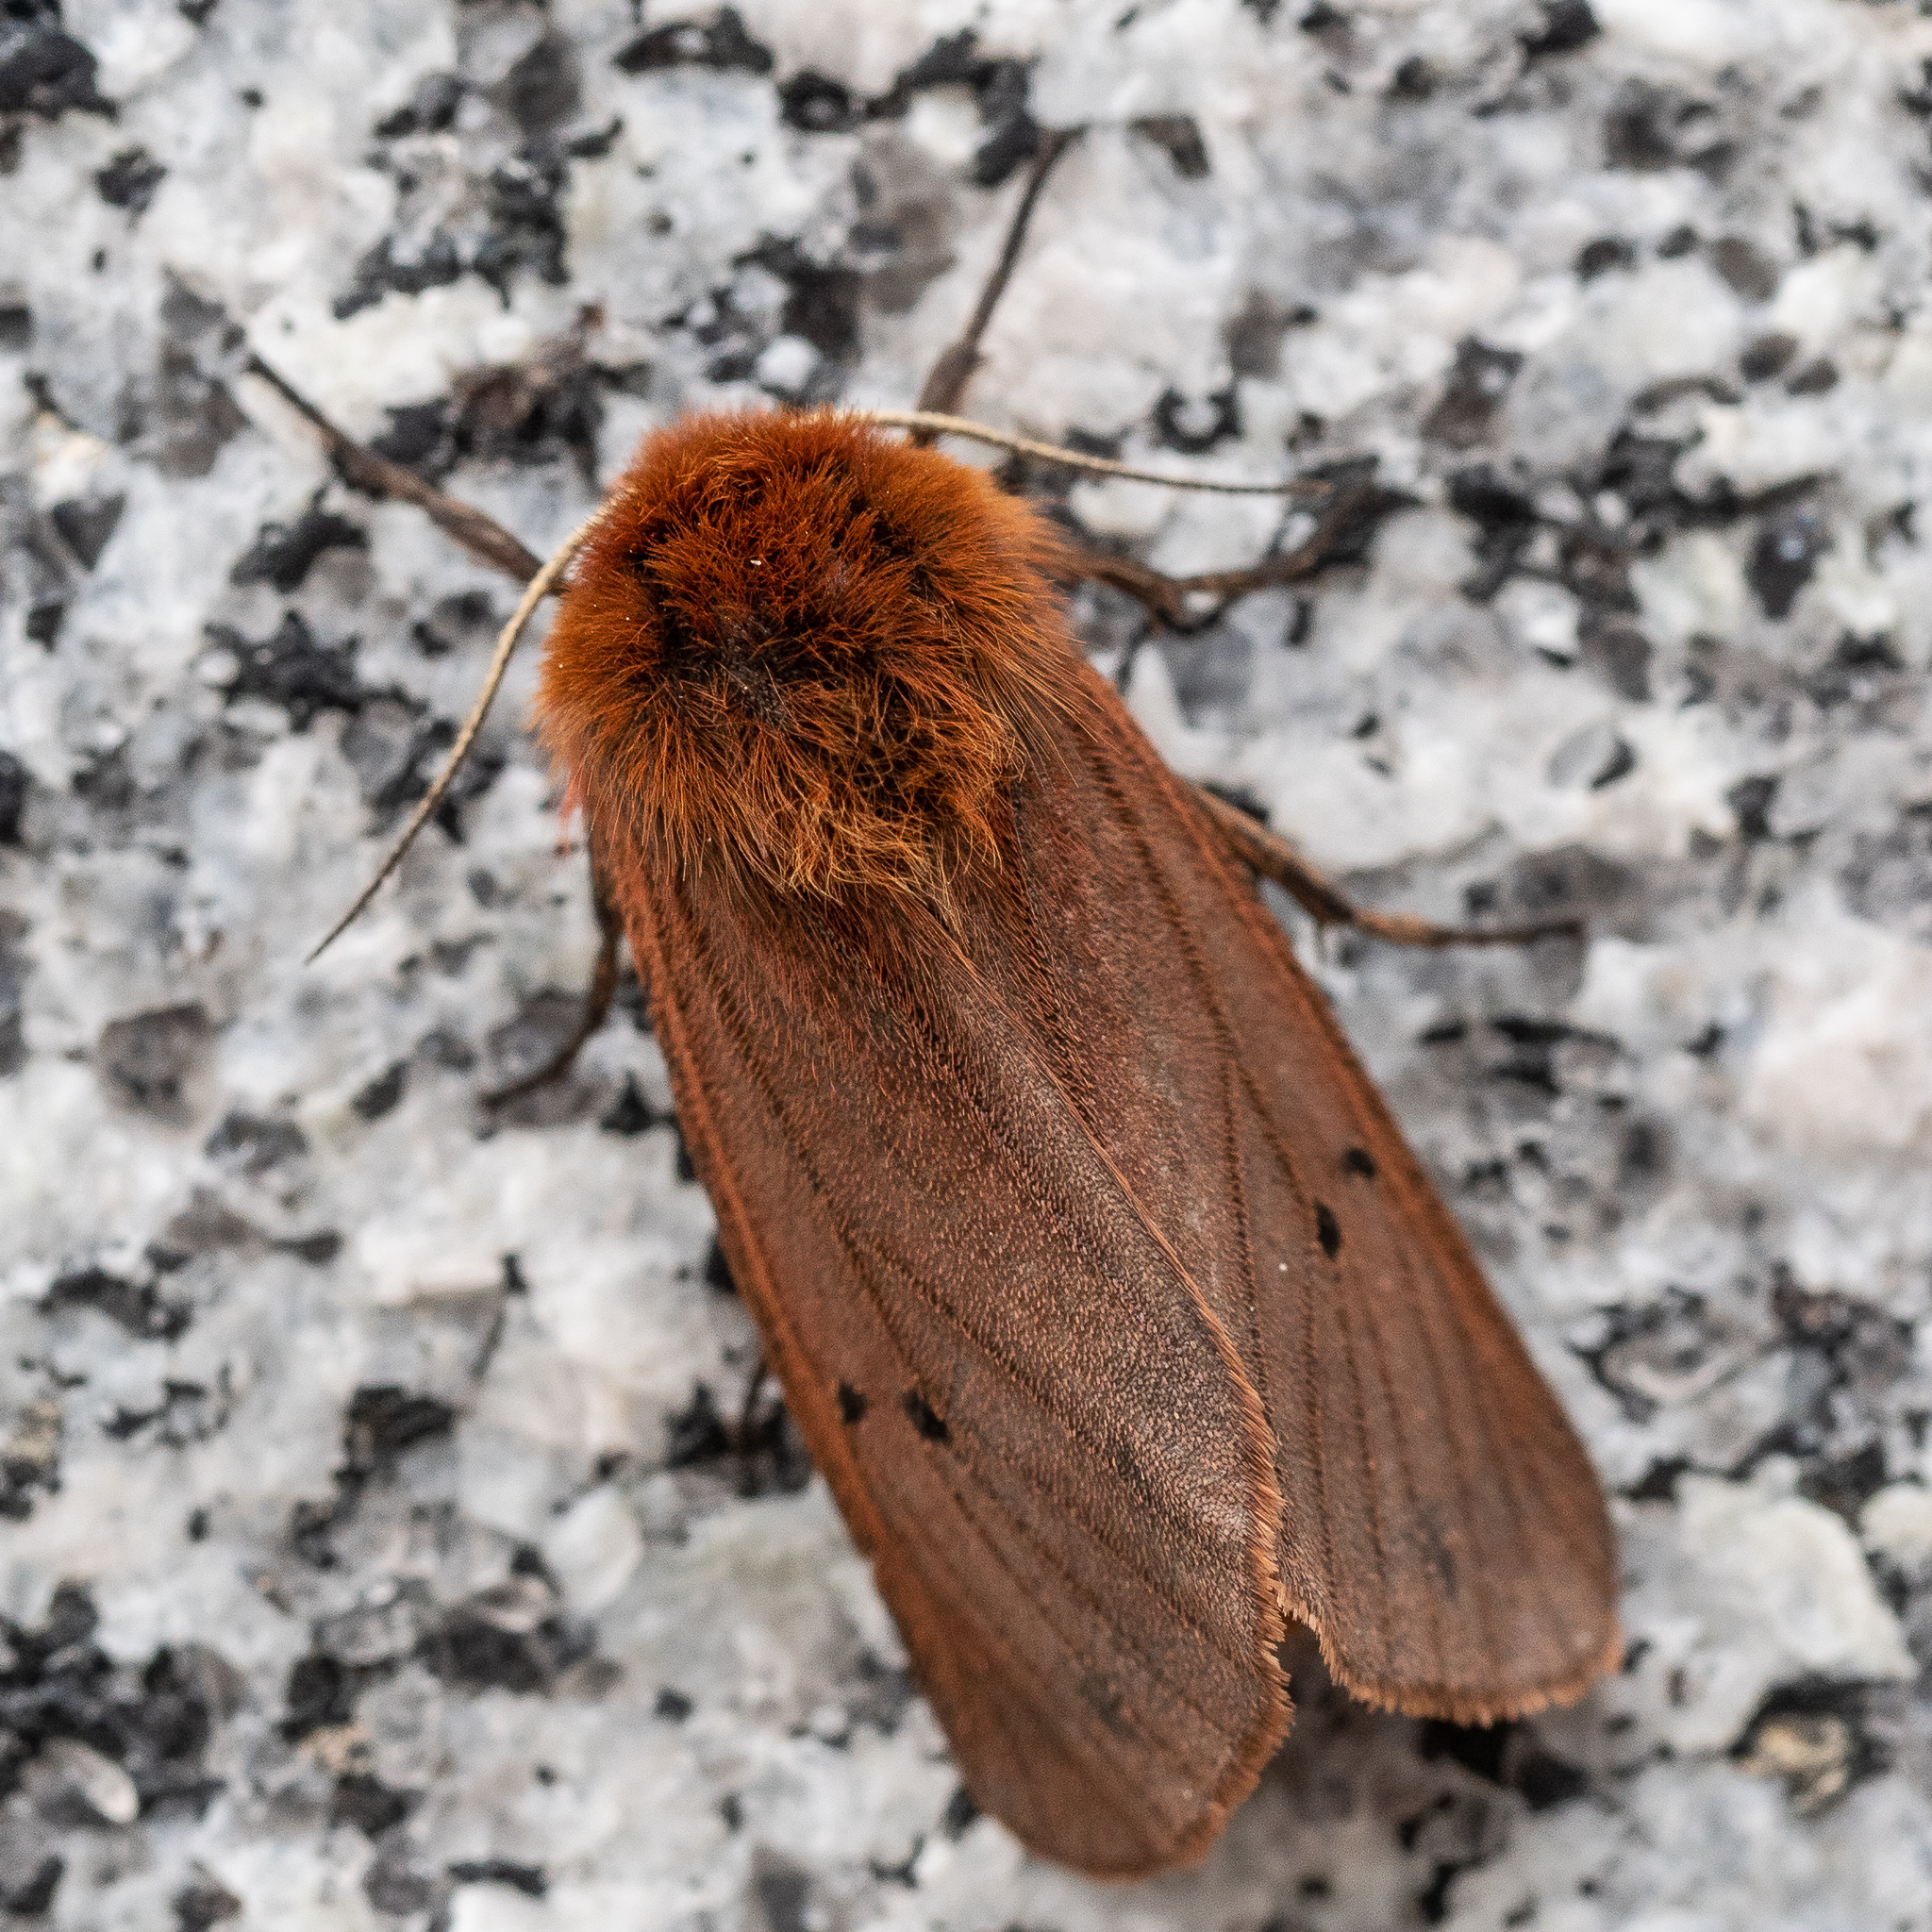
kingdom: Animalia
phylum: Arthropoda
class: Insecta
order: Lepidoptera
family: Erebidae
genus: Phragmatobia
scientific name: Phragmatobia fuliginosa
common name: Ruby tiger
